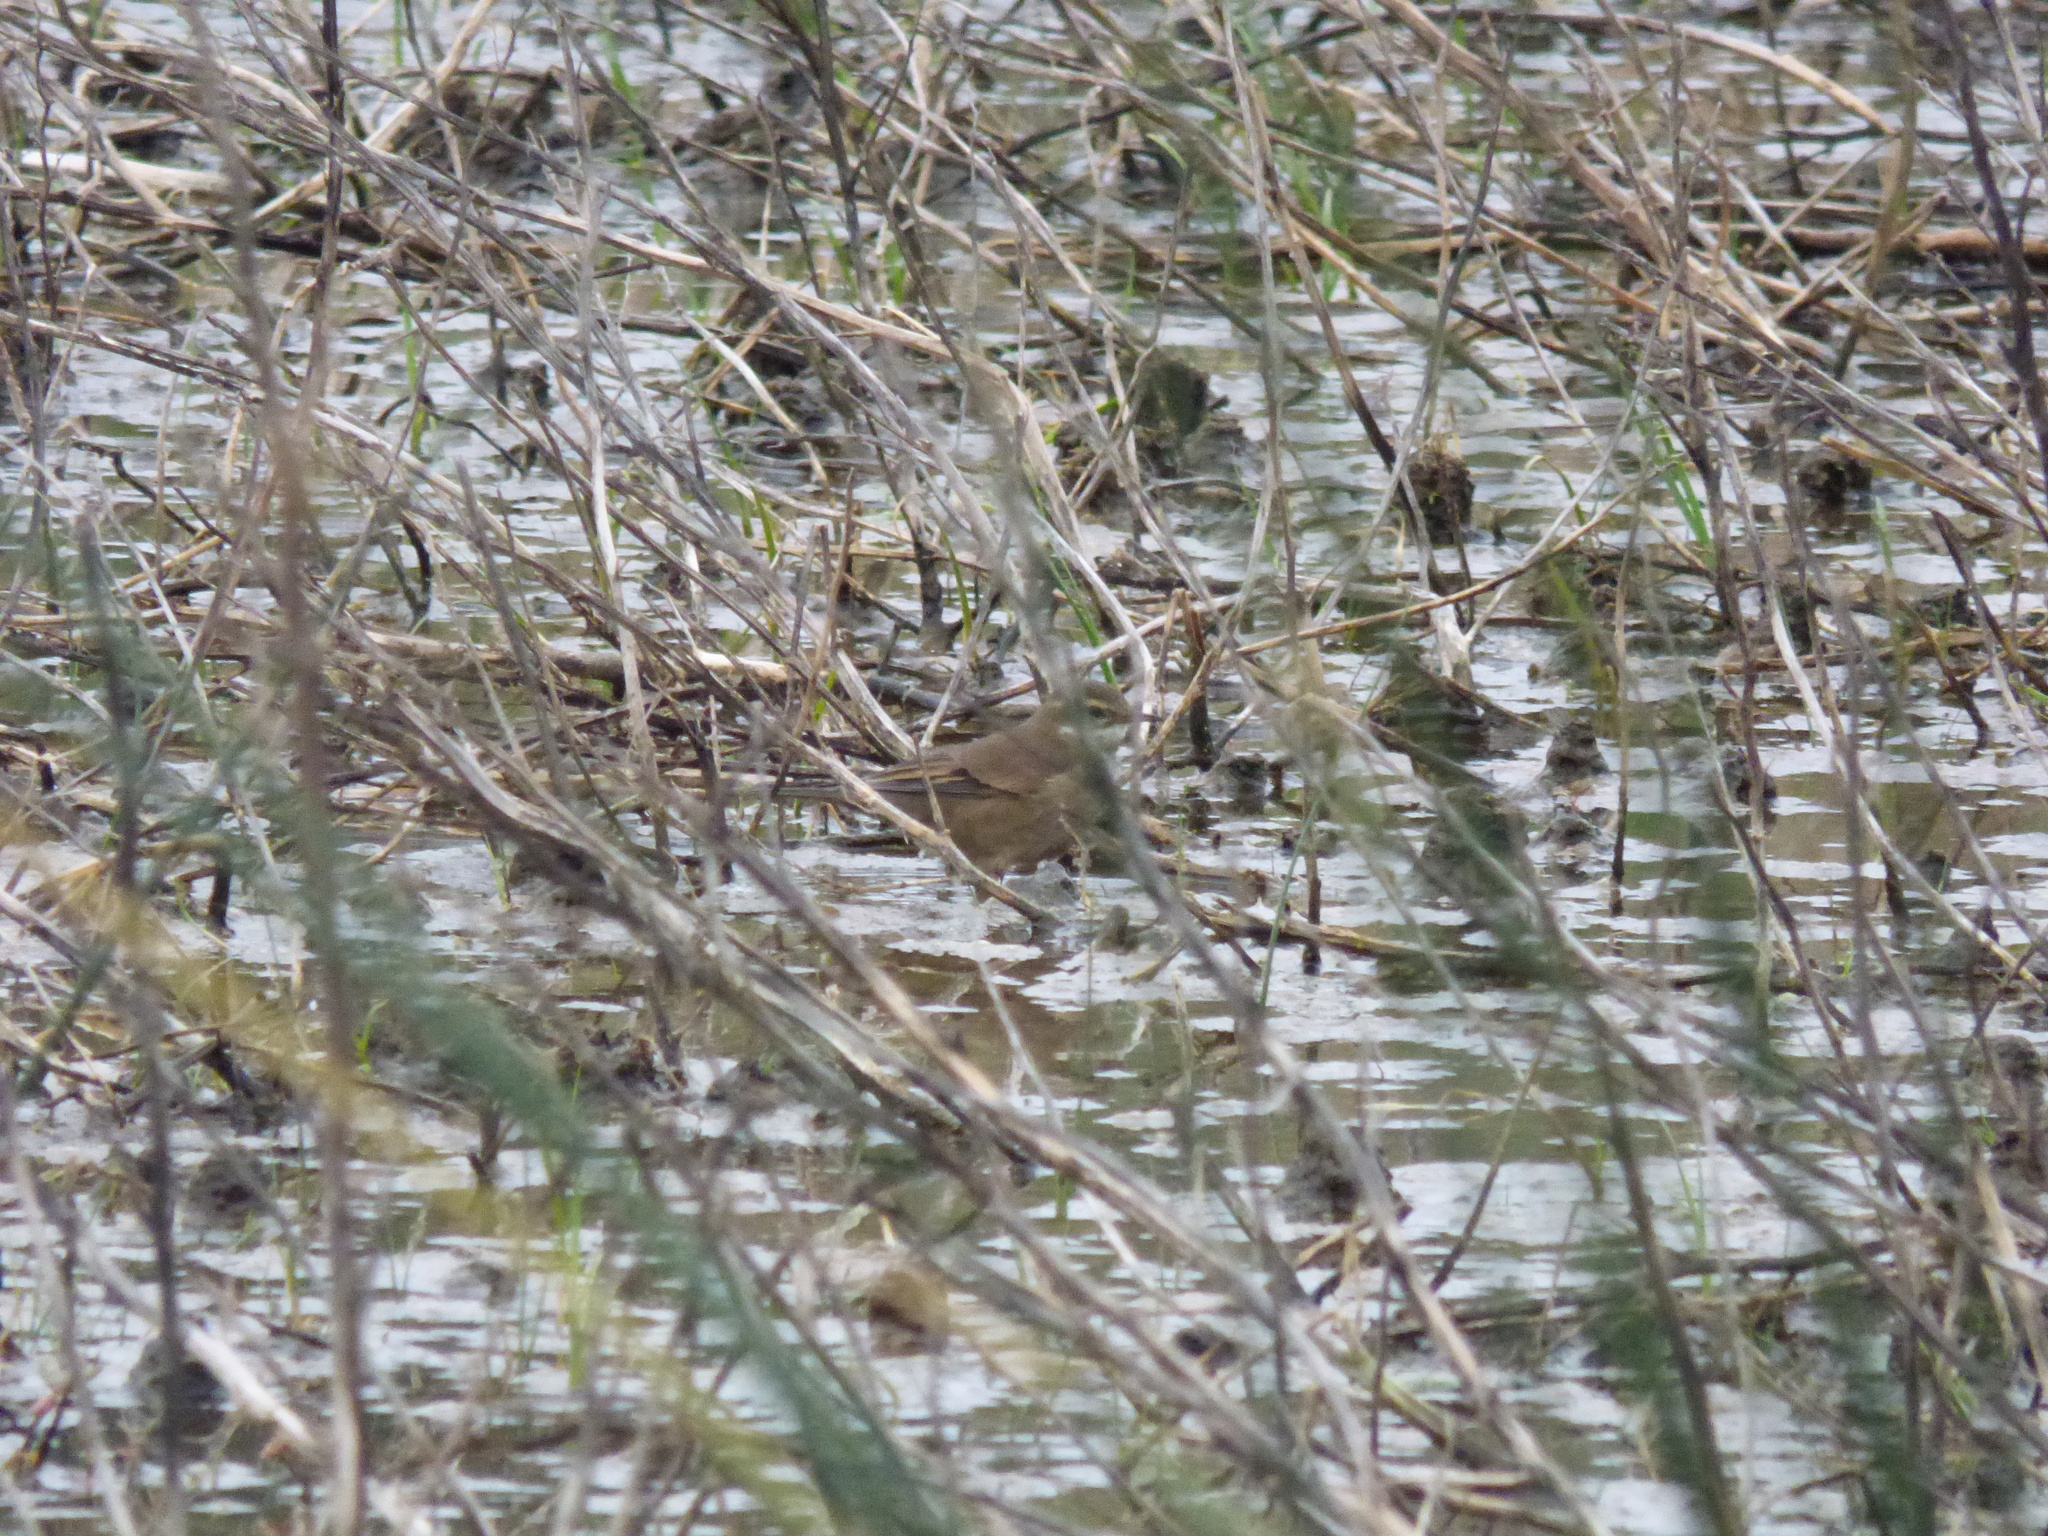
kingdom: Animalia
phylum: Chordata
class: Aves
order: Passeriformes
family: Furnariidae
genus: Cinclodes
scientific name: Cinclodes fuscus
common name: Buff-winged cinclodes
